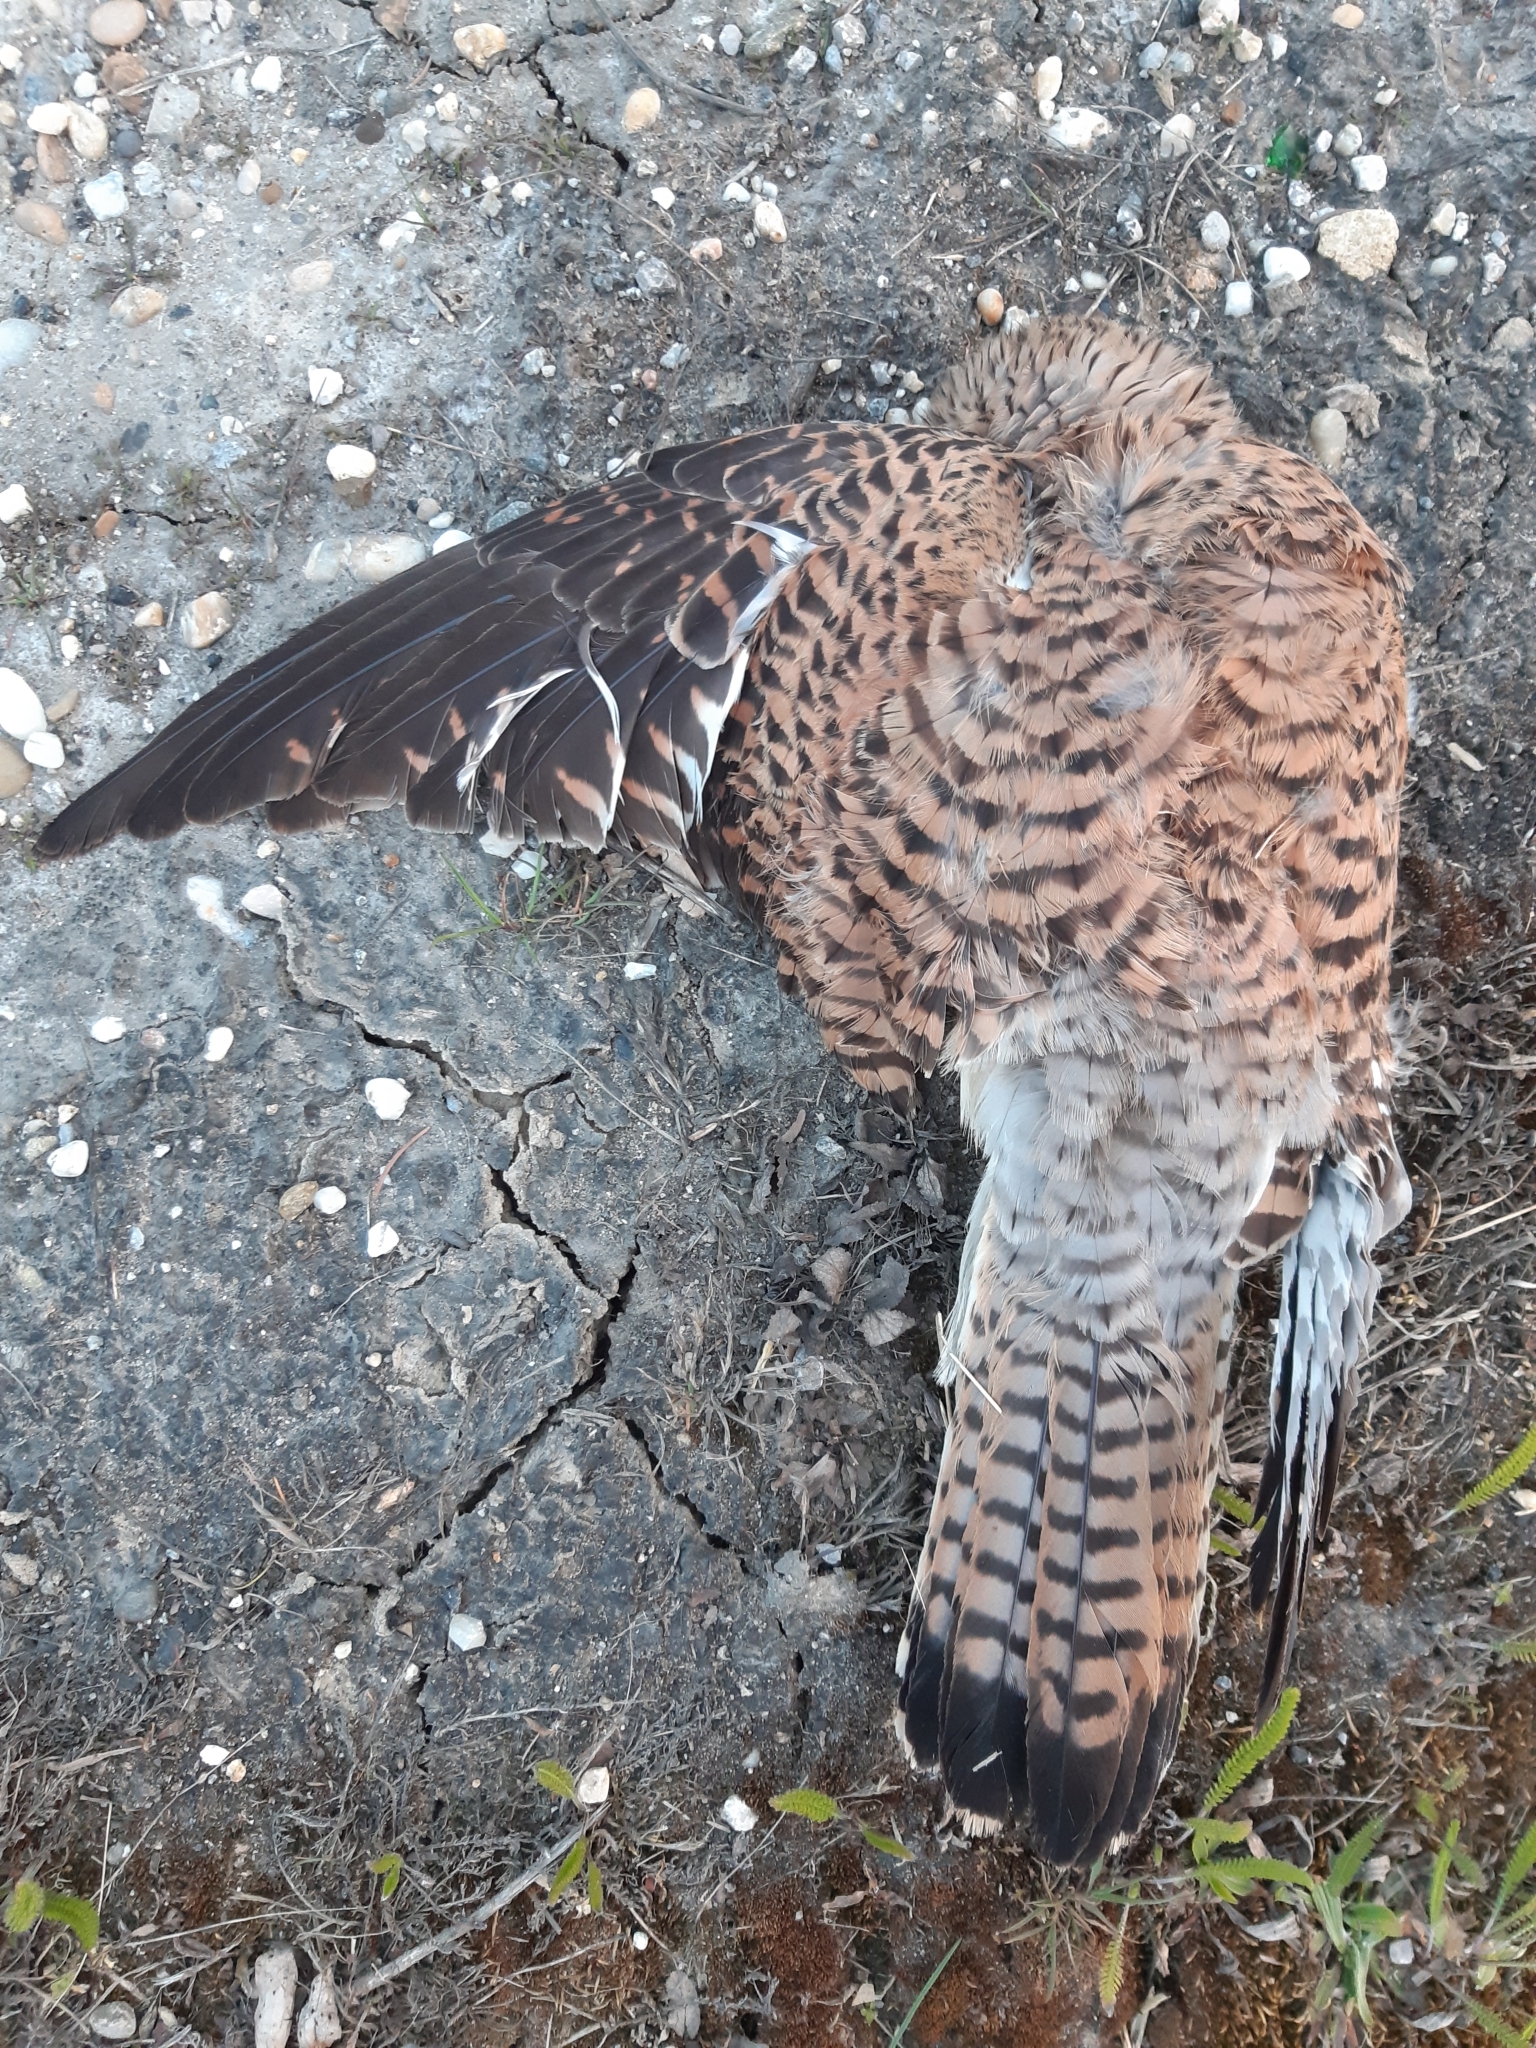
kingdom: Animalia
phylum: Chordata
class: Aves
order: Falconiformes
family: Falconidae
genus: Falco
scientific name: Falco tinnunculus
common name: Common kestrel
